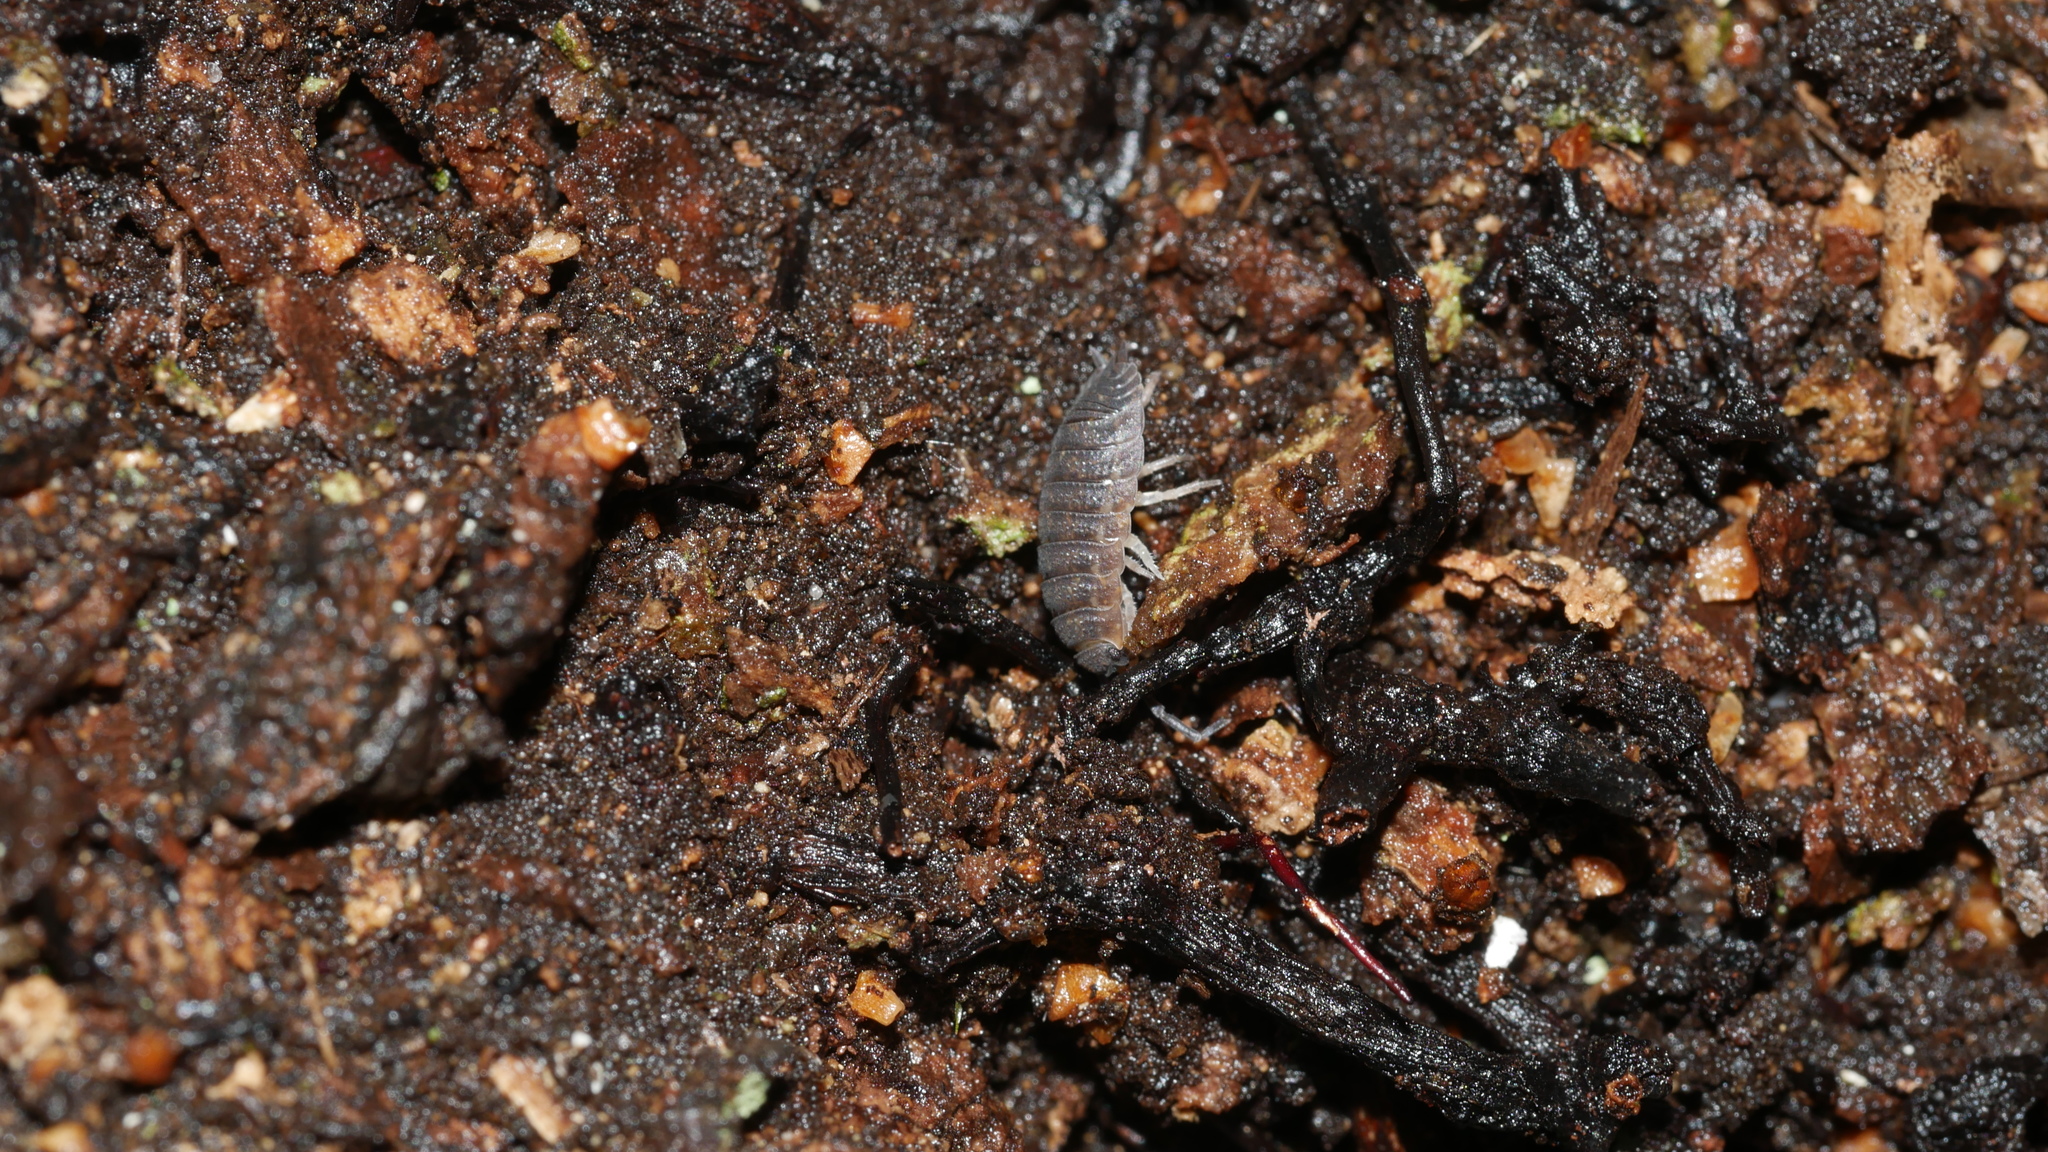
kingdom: Animalia
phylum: Arthropoda
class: Malacostraca
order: Isopoda
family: Porcellionidae
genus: Porcellio
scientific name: Porcellio scaber
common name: Common rough woodlouse
